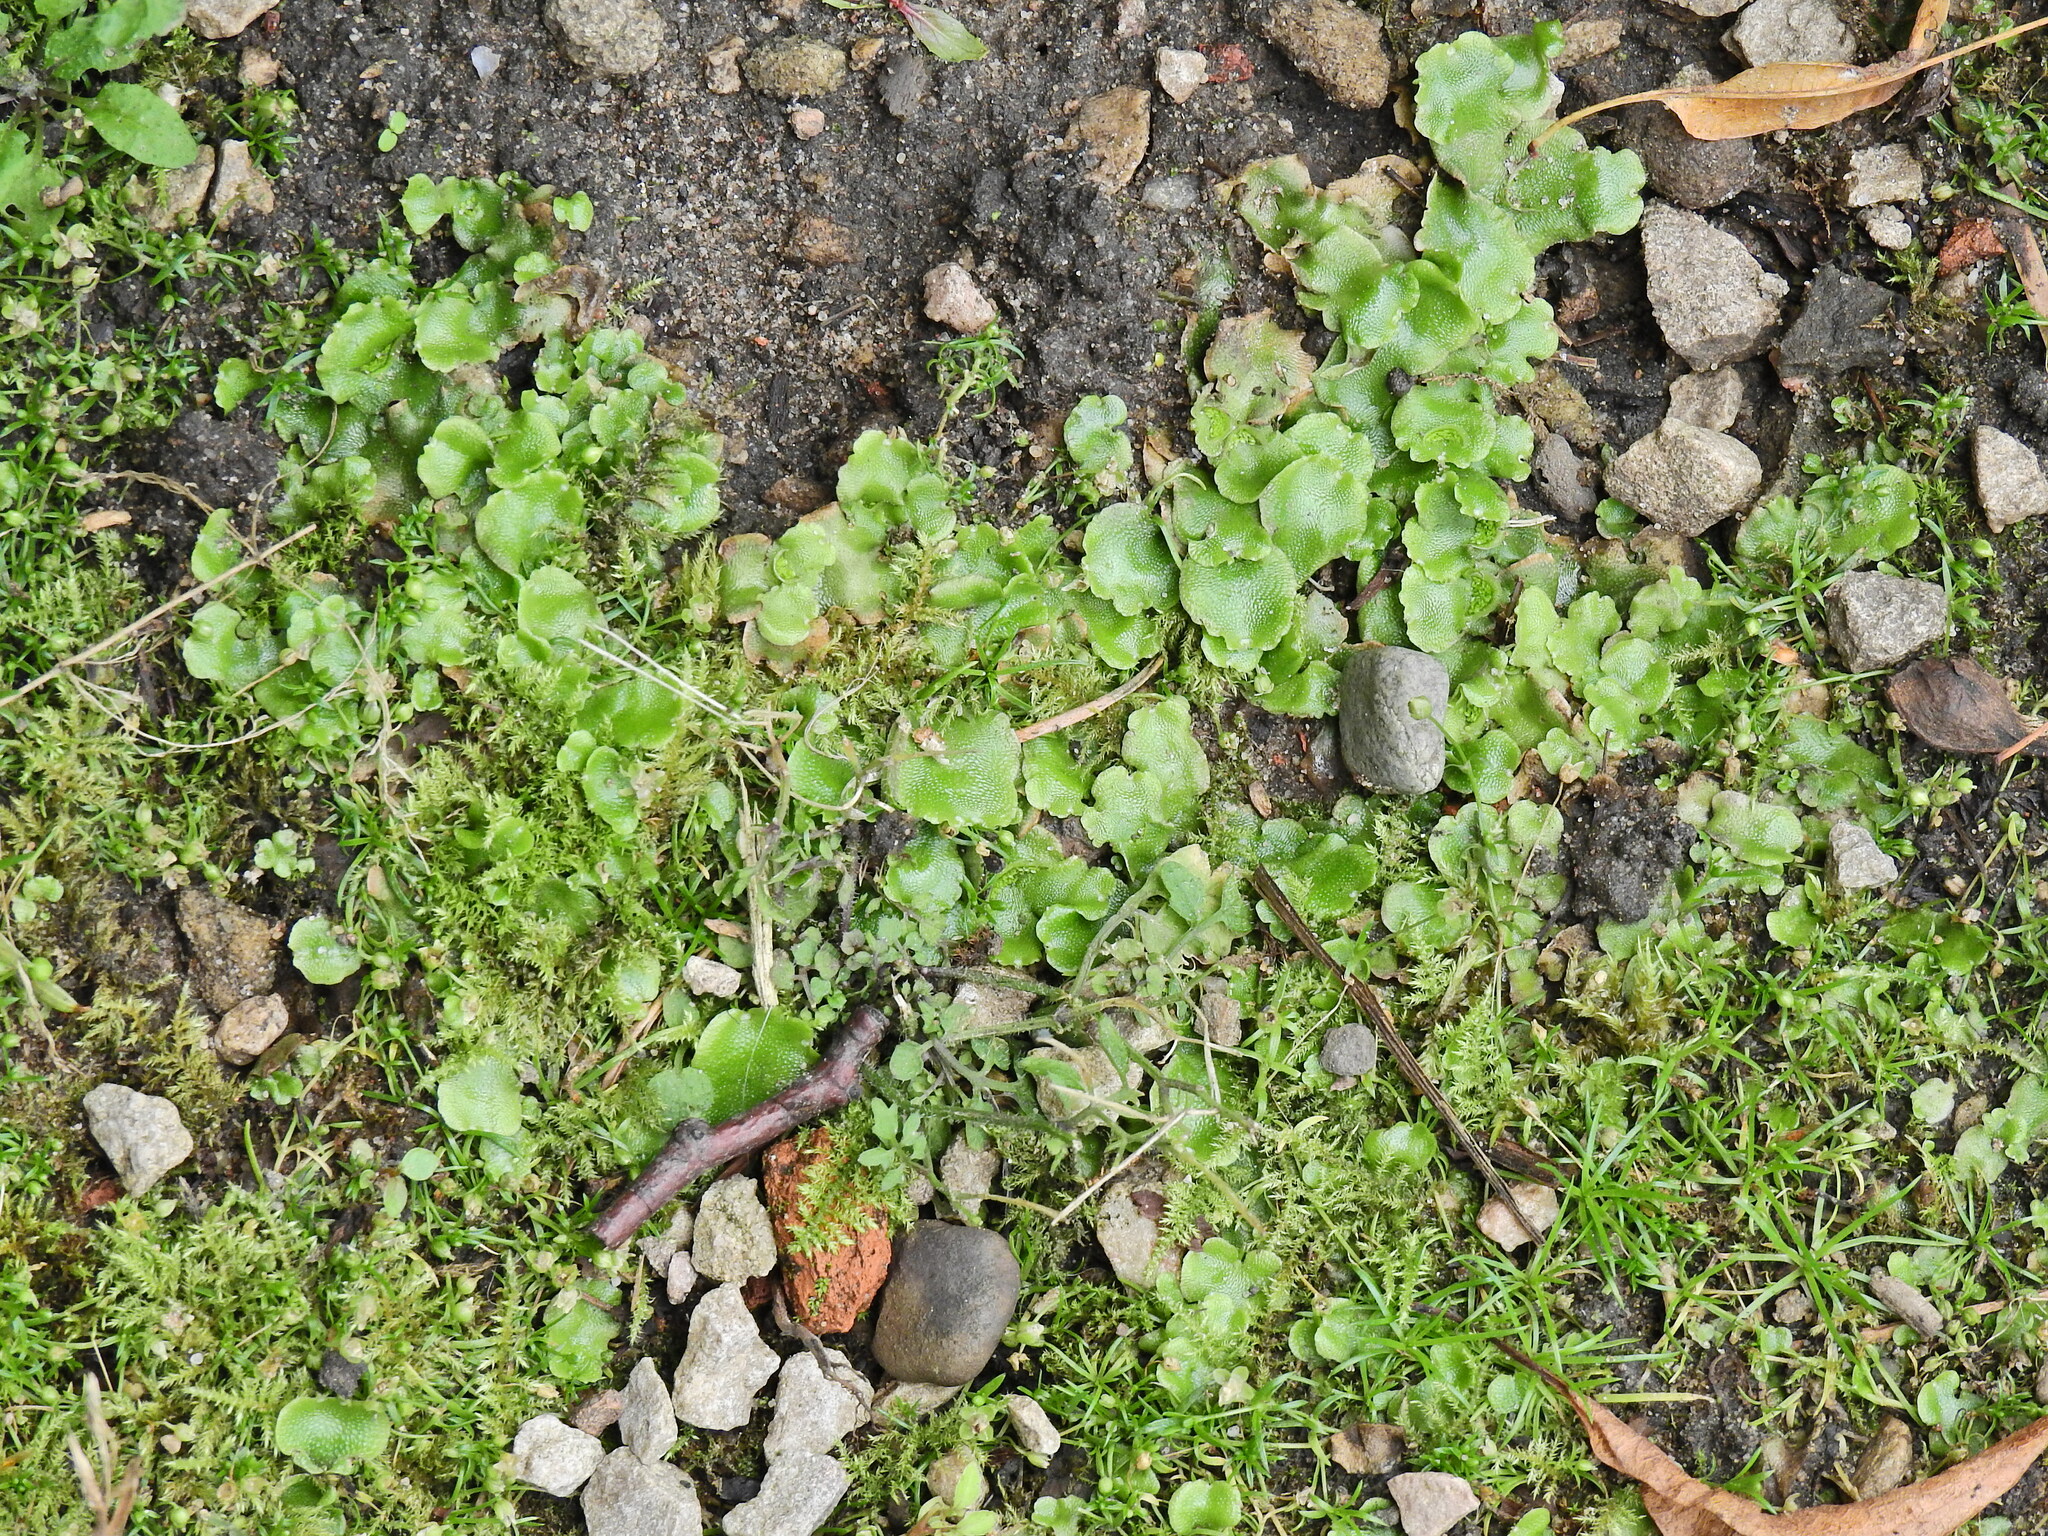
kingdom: Plantae
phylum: Marchantiophyta
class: Marchantiopsida
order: Lunulariales
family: Lunulariaceae
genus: Lunularia
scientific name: Lunularia cruciata
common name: Crescent-cup liverwort
